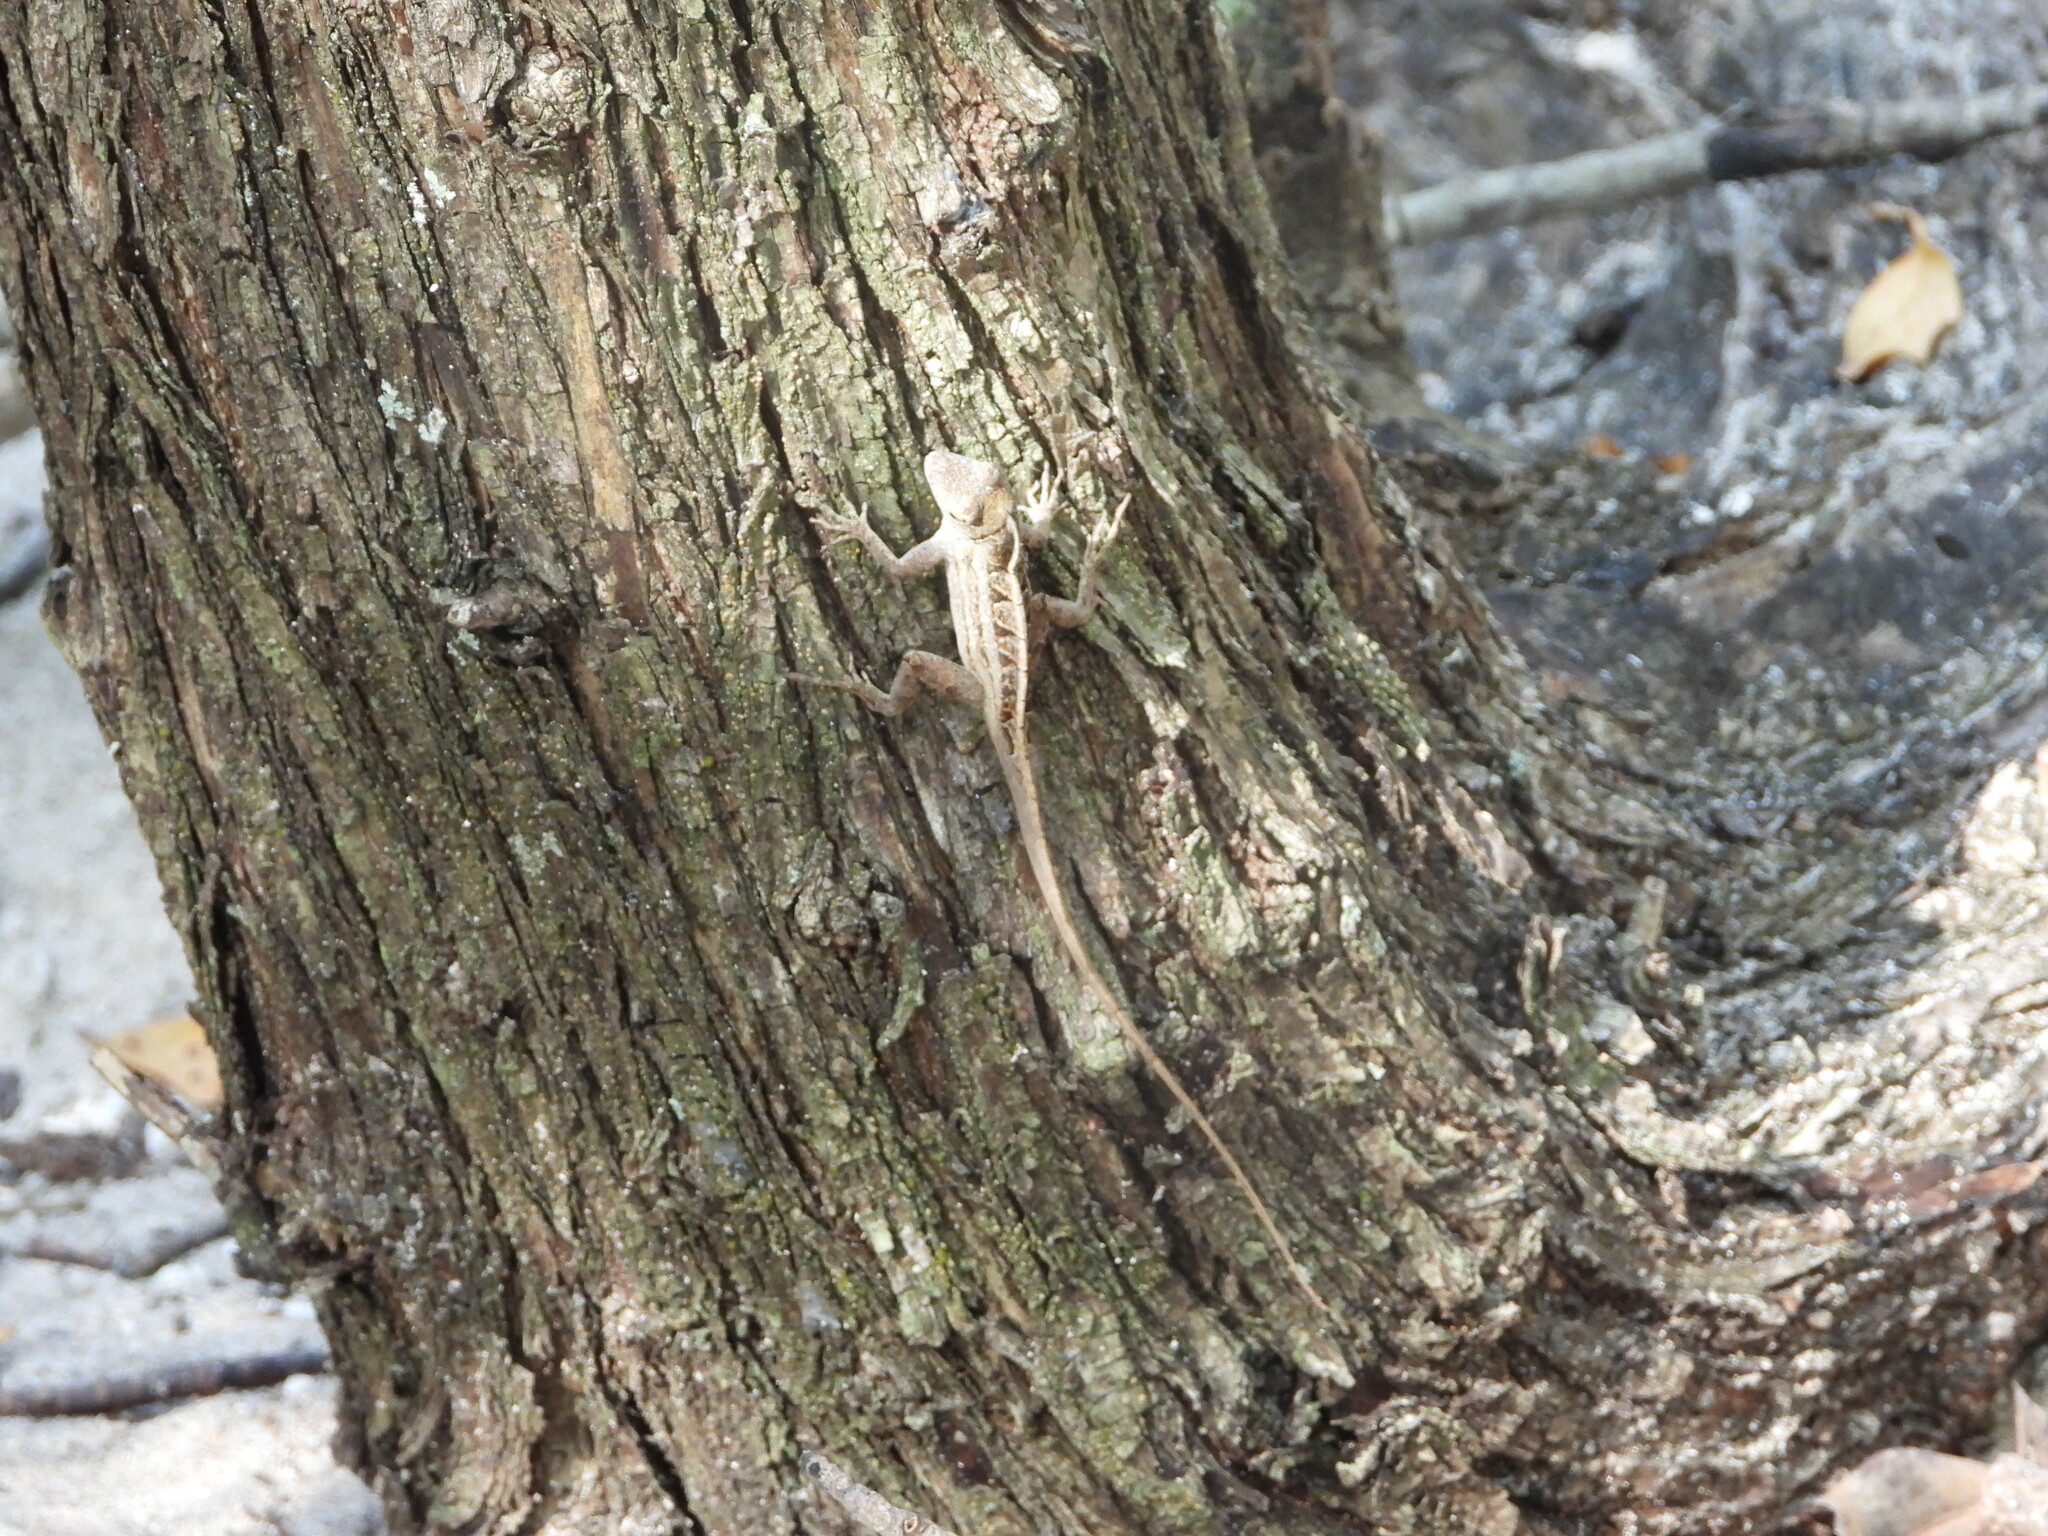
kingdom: Animalia
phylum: Chordata
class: Squamata
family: Dactyloidae
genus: Anolis
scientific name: Anolis sagrei
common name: Brown anole
